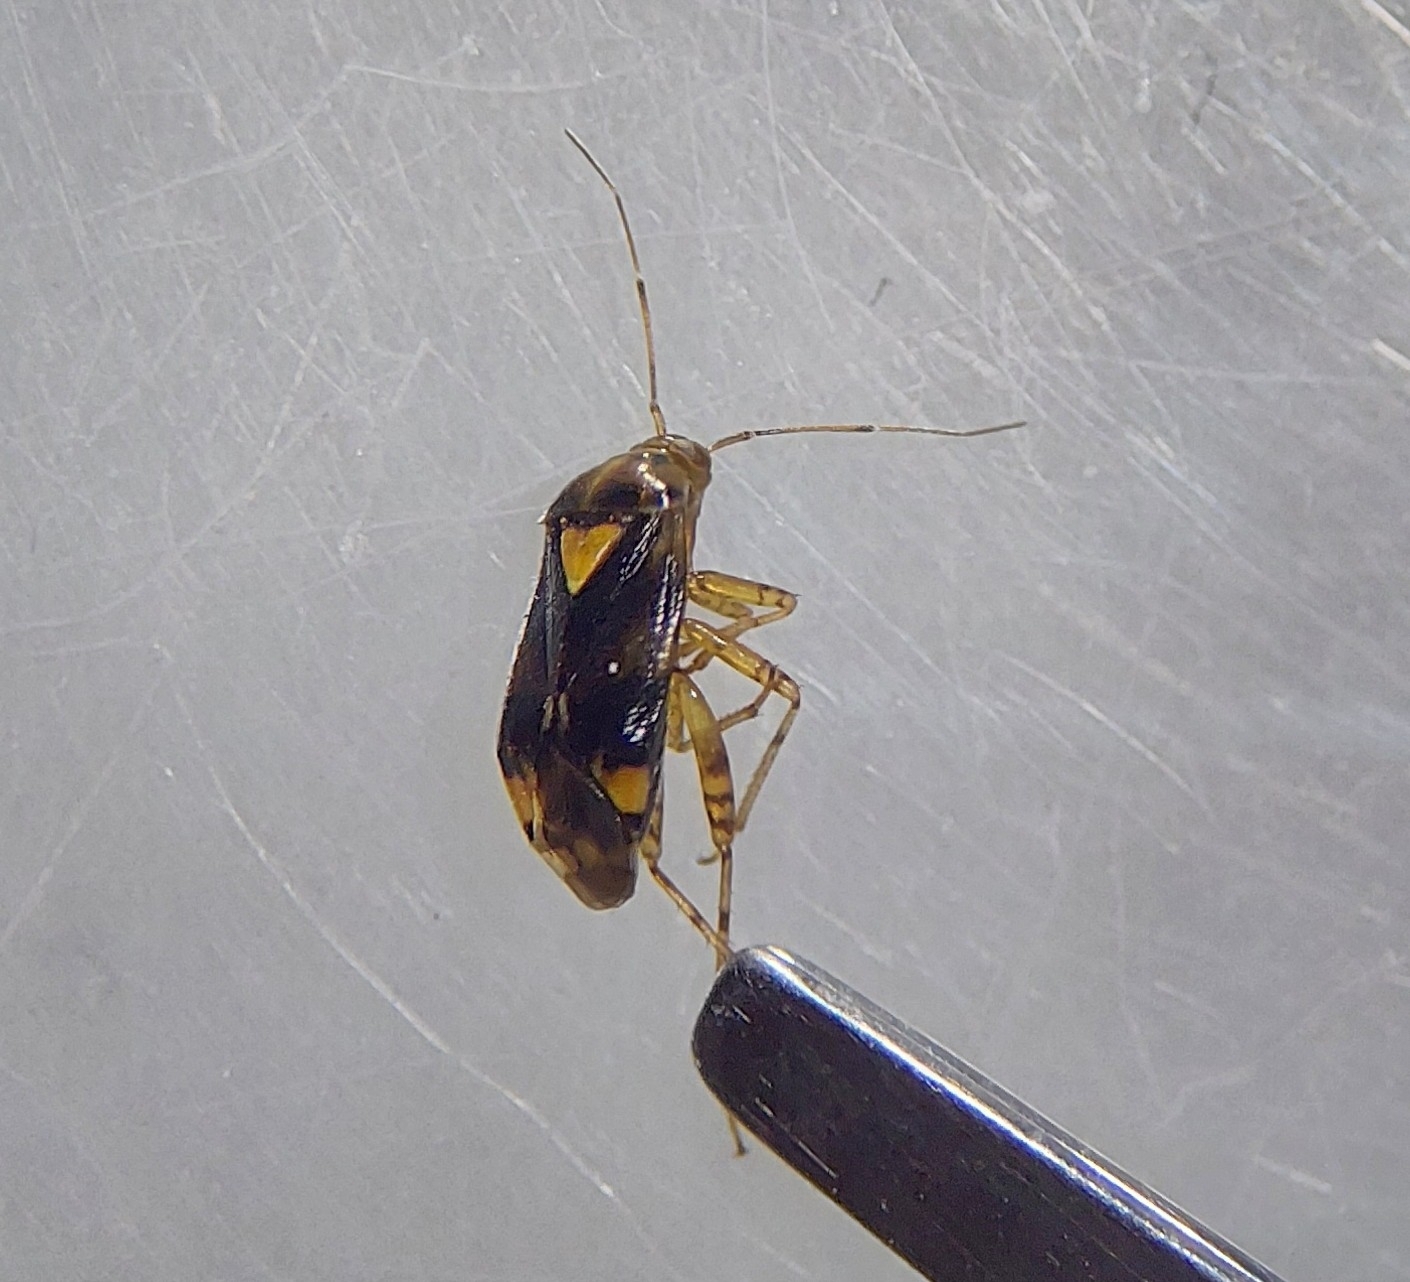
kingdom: Animalia
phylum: Arthropoda
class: Insecta
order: Hemiptera
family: Miridae
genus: Liocoris
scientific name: Liocoris tripustulatus
